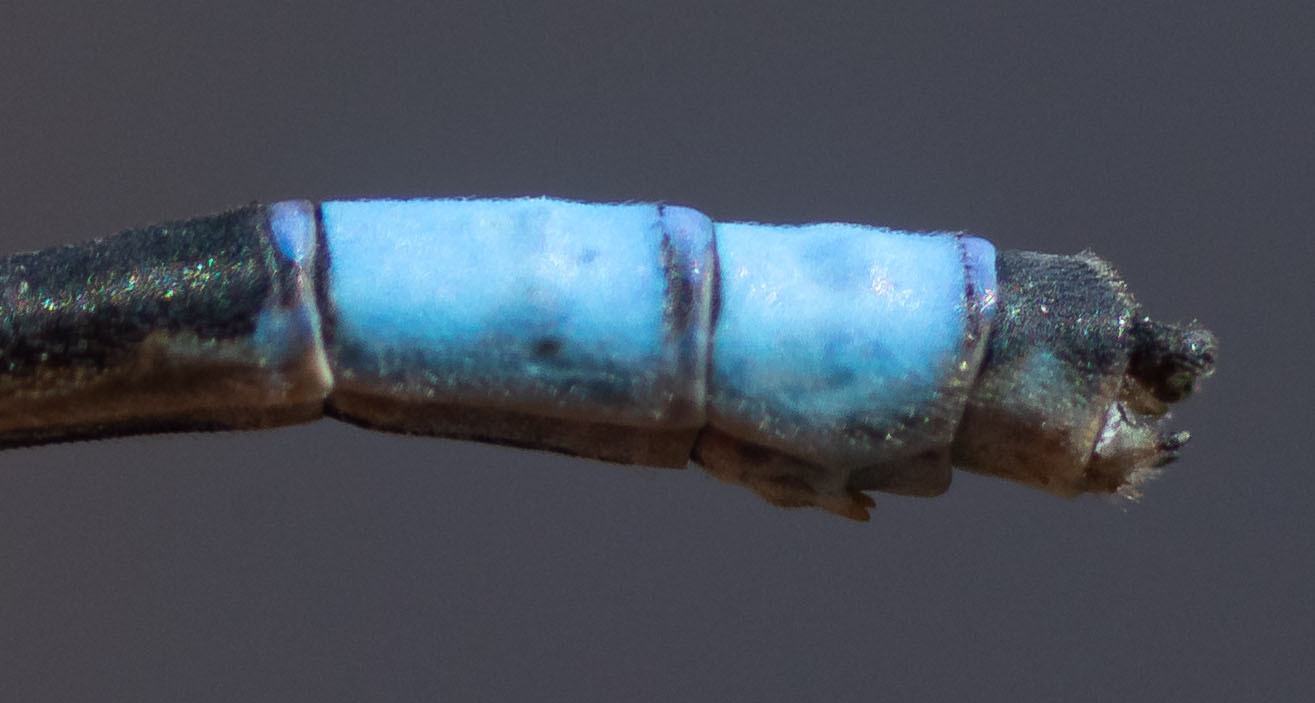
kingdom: Animalia
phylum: Arthropoda
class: Insecta
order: Odonata
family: Coenagrionidae
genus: Enallagma
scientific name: Enallagma carunculatum
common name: Tule bluet
